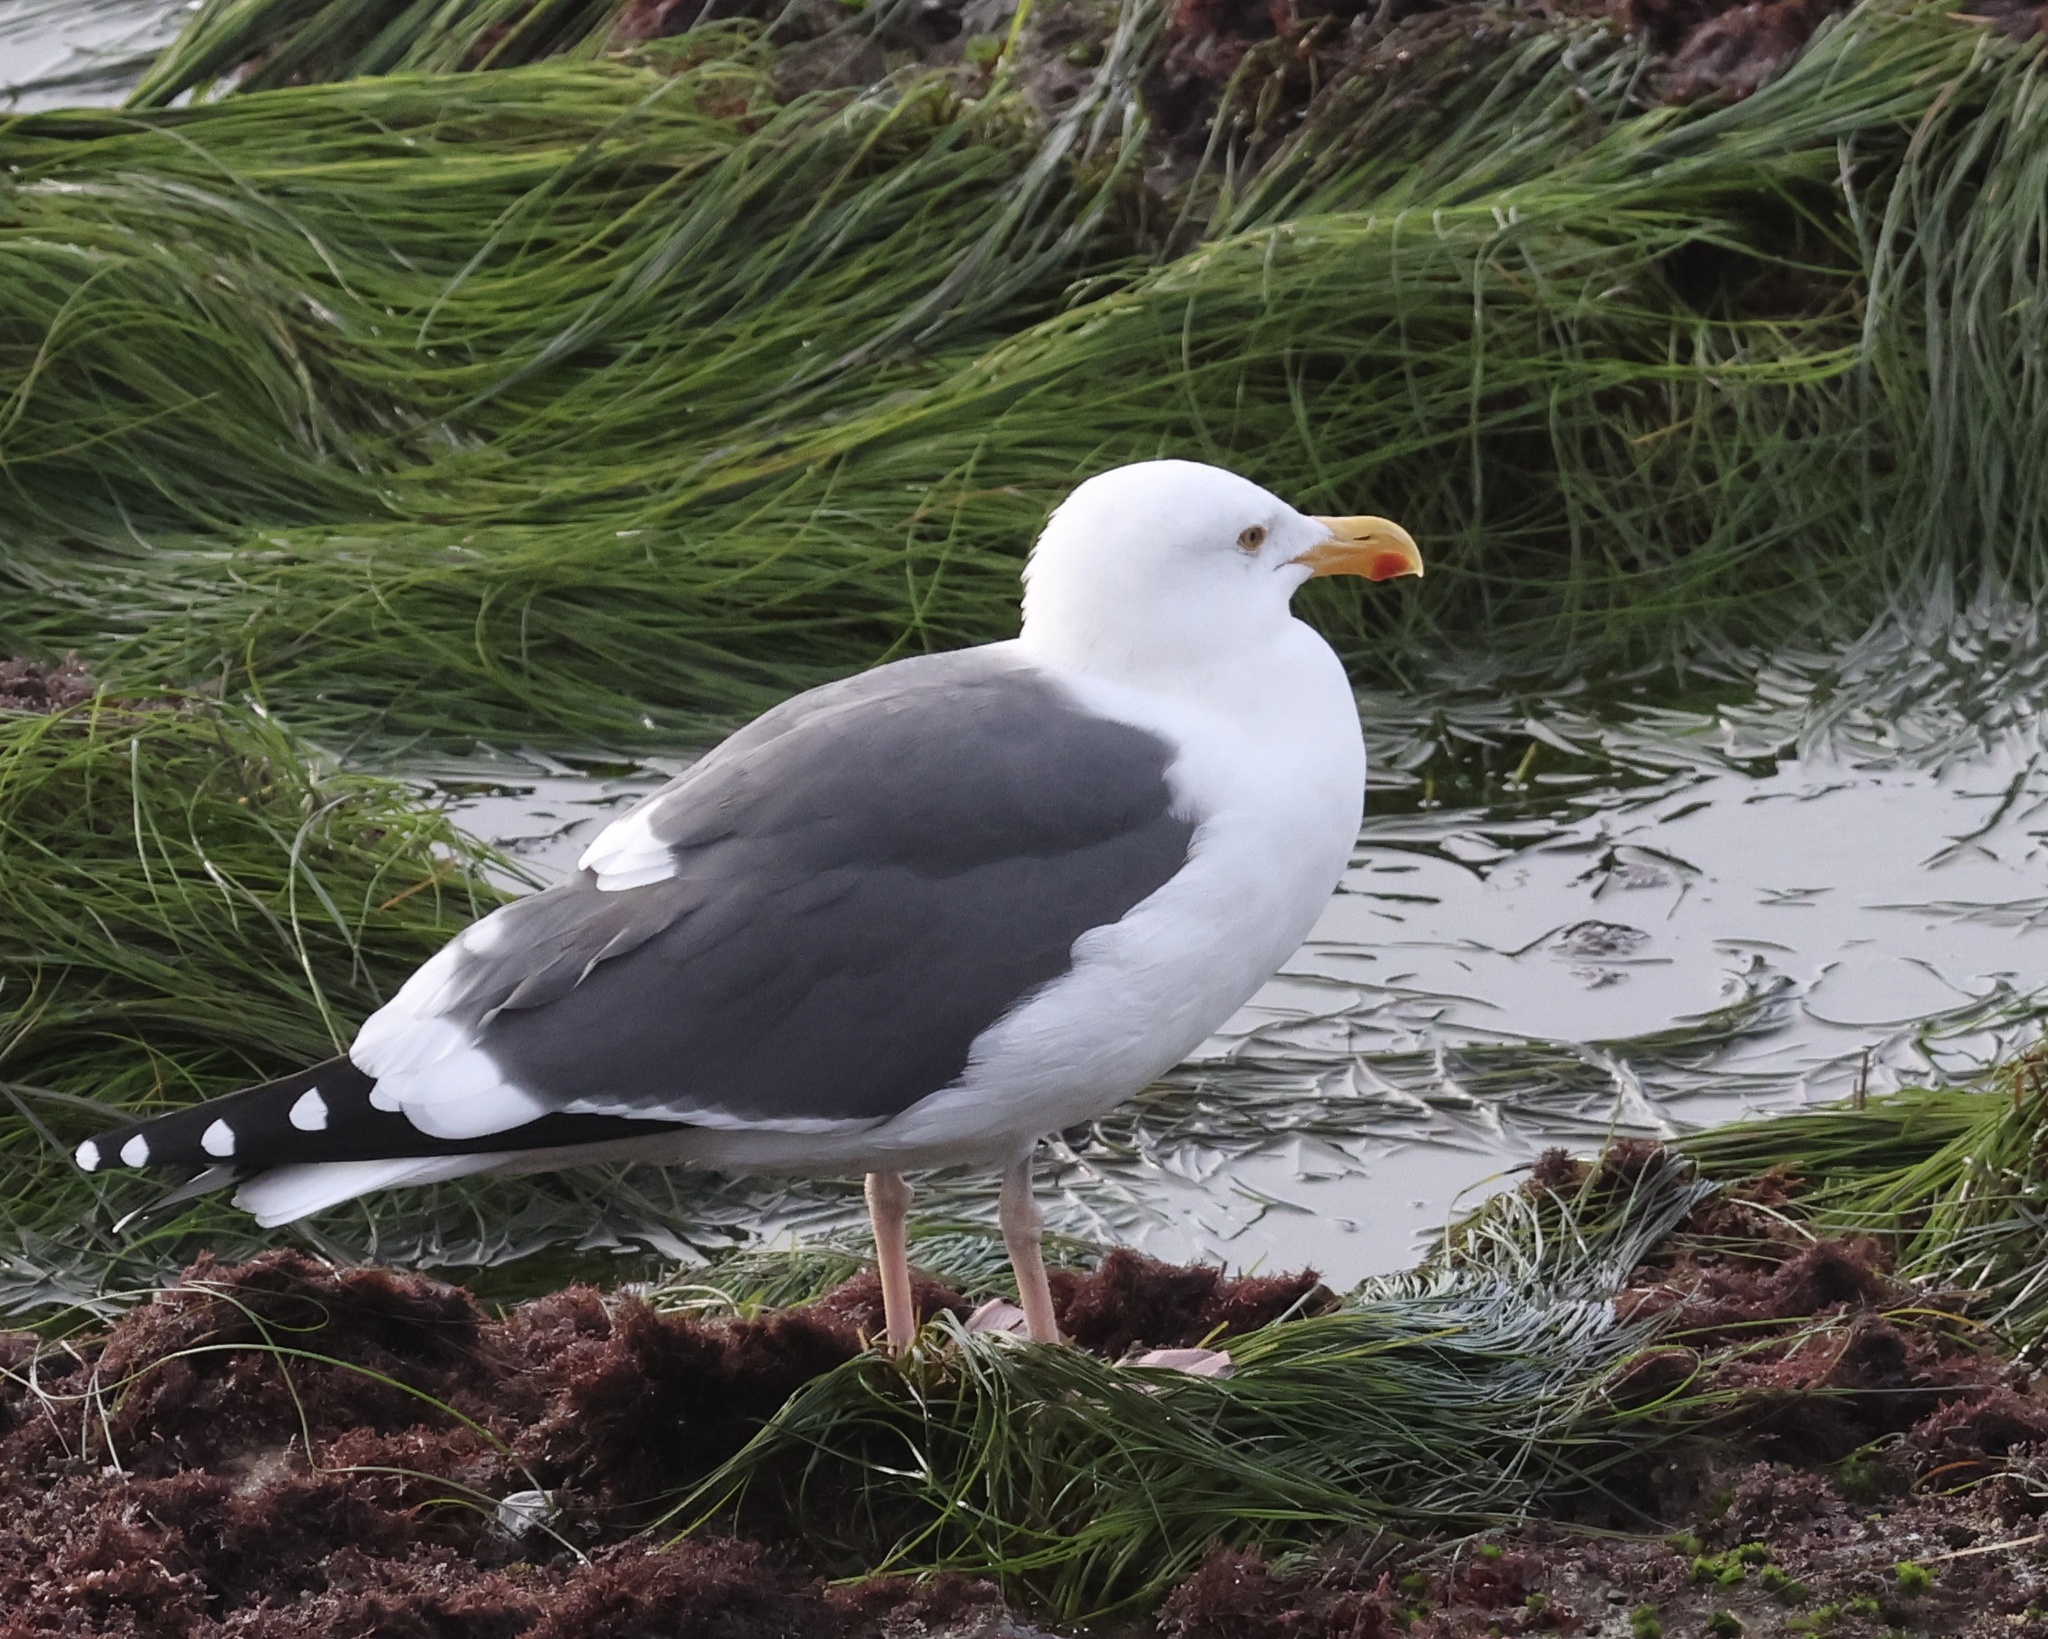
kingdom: Animalia
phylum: Chordata
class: Aves
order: Charadriiformes
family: Laridae
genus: Larus
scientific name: Larus occidentalis
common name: Western gull
